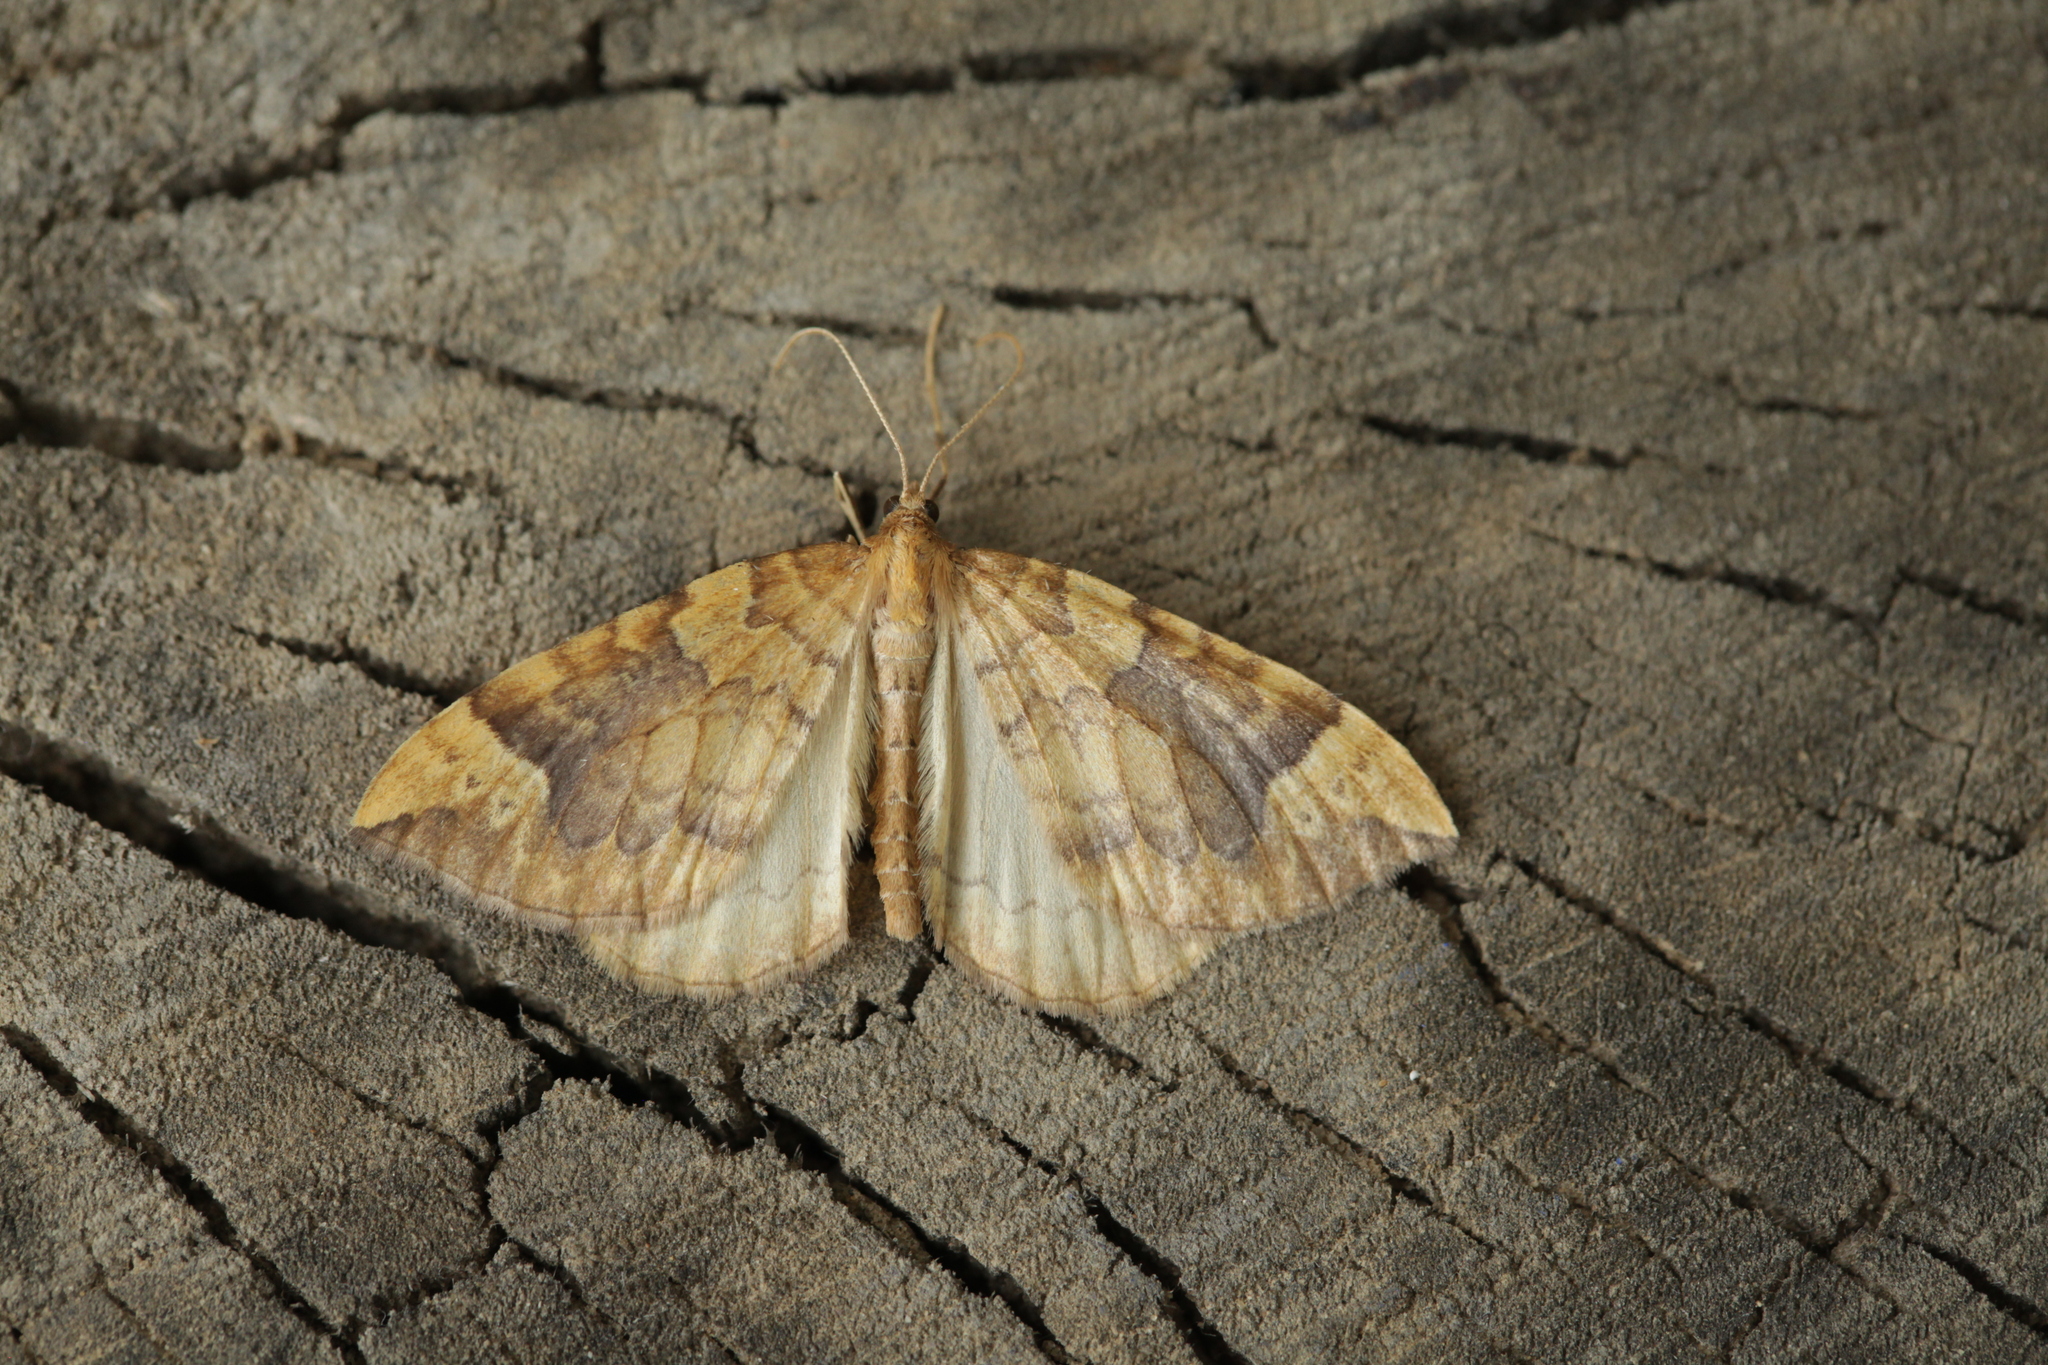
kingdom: Animalia
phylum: Arthropoda
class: Insecta
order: Lepidoptera
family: Geometridae
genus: Eulithis
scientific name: Eulithis populata
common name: Northern spinach
